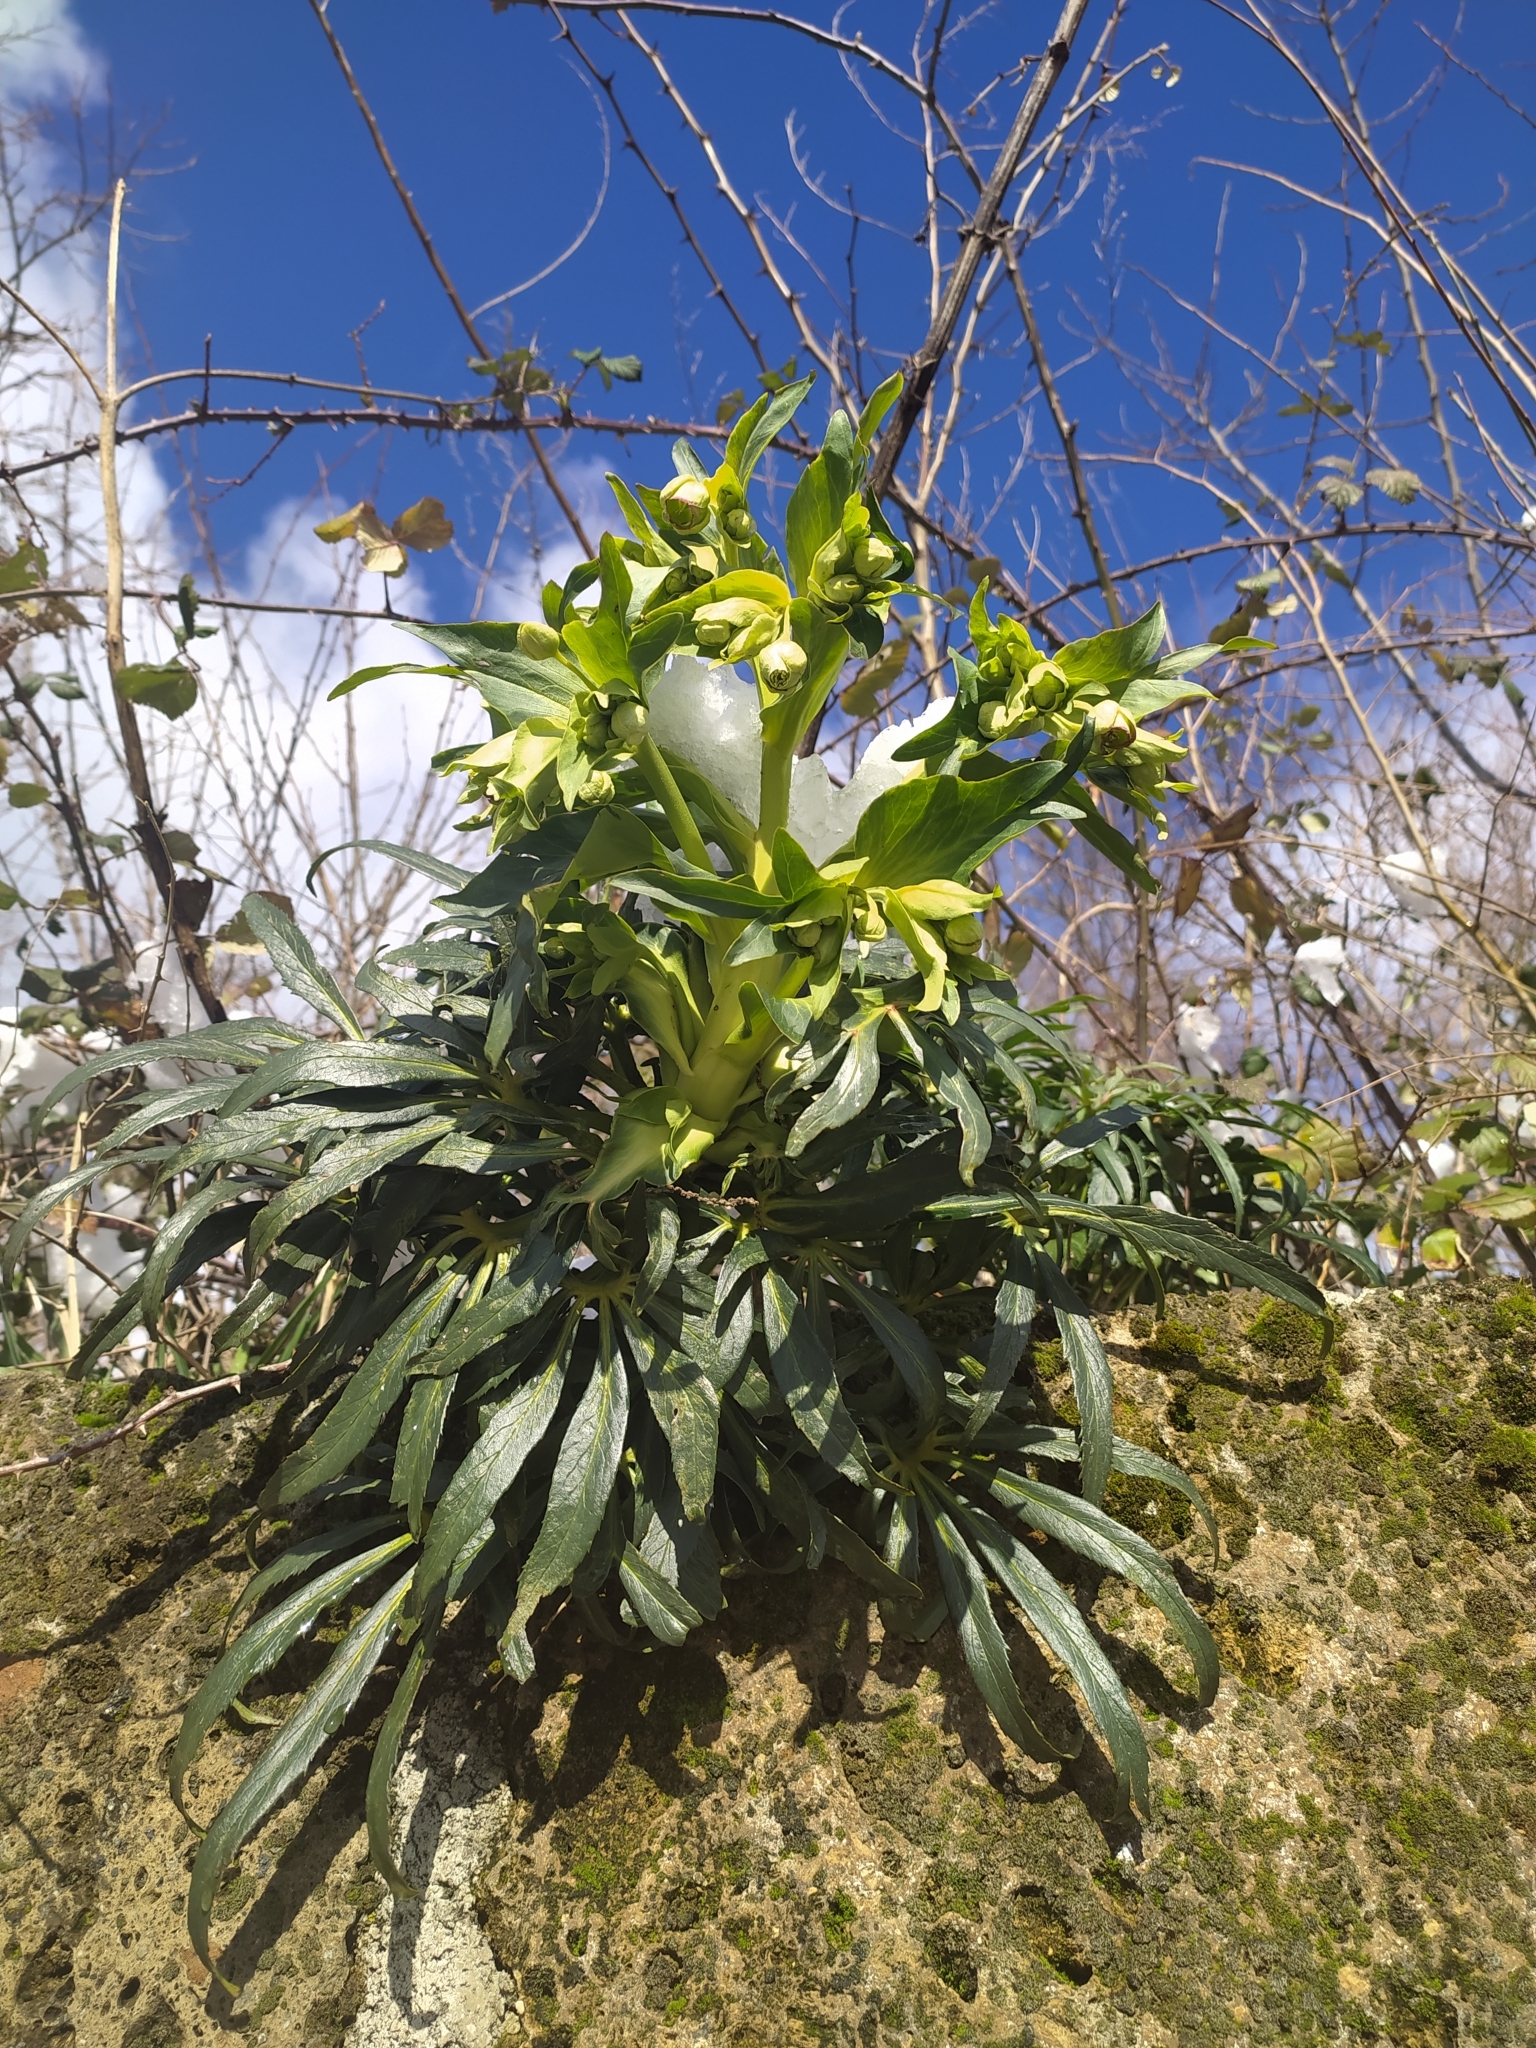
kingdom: Plantae
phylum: Tracheophyta
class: Magnoliopsida
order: Ranunculales
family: Ranunculaceae
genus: Helleborus
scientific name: Helleborus foetidus
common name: Stinking hellebore
